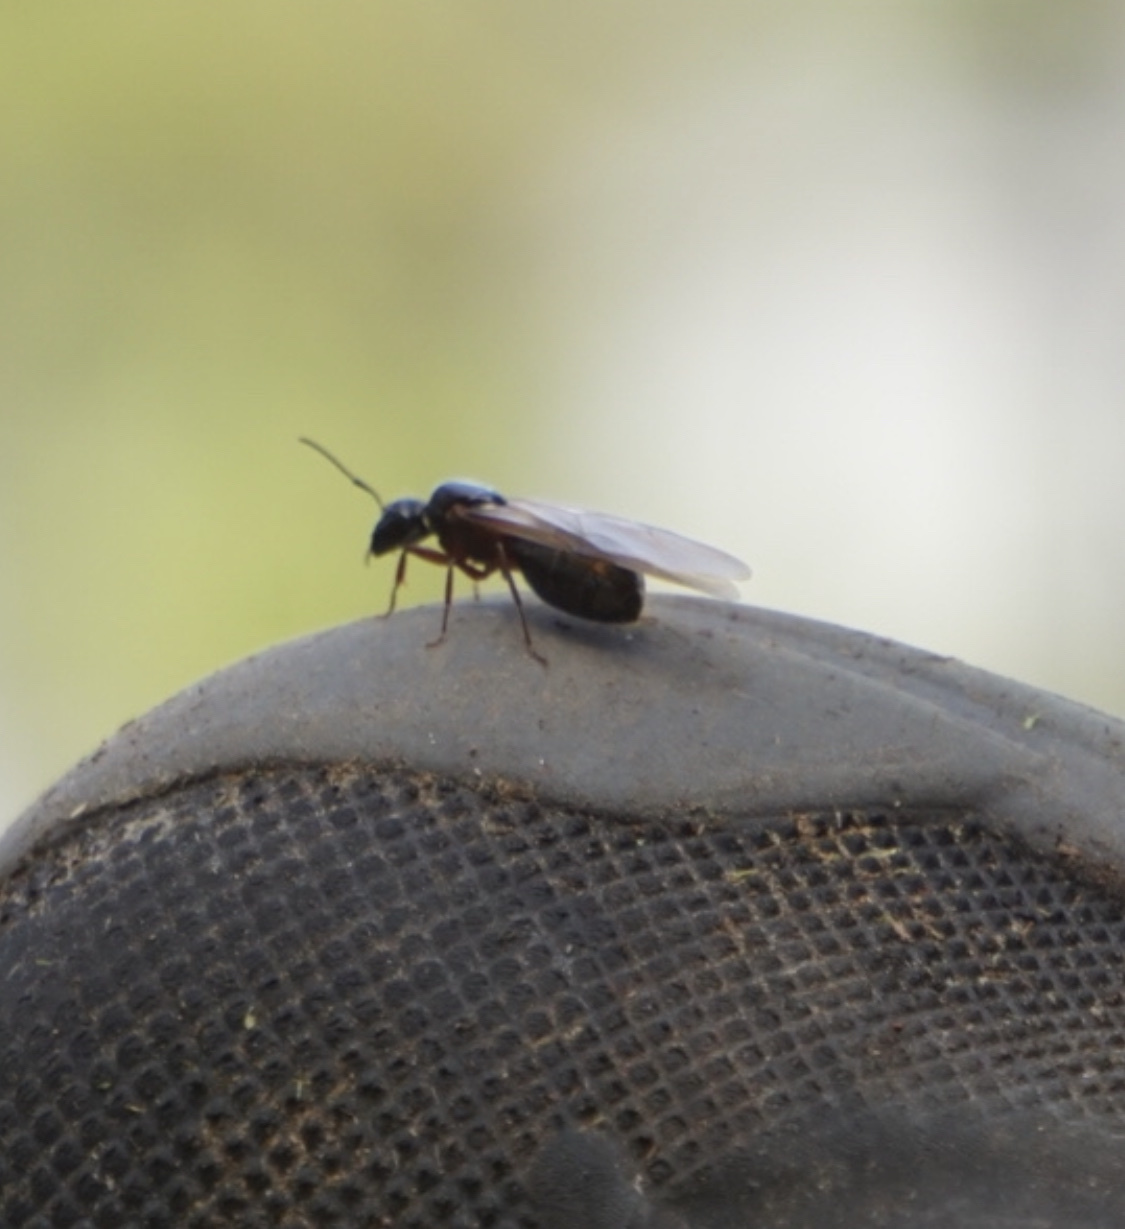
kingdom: Animalia
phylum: Arthropoda
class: Insecta
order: Hymenoptera
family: Formicidae
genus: Camponotus
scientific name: Camponotus herculeanus
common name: Hercules ant
